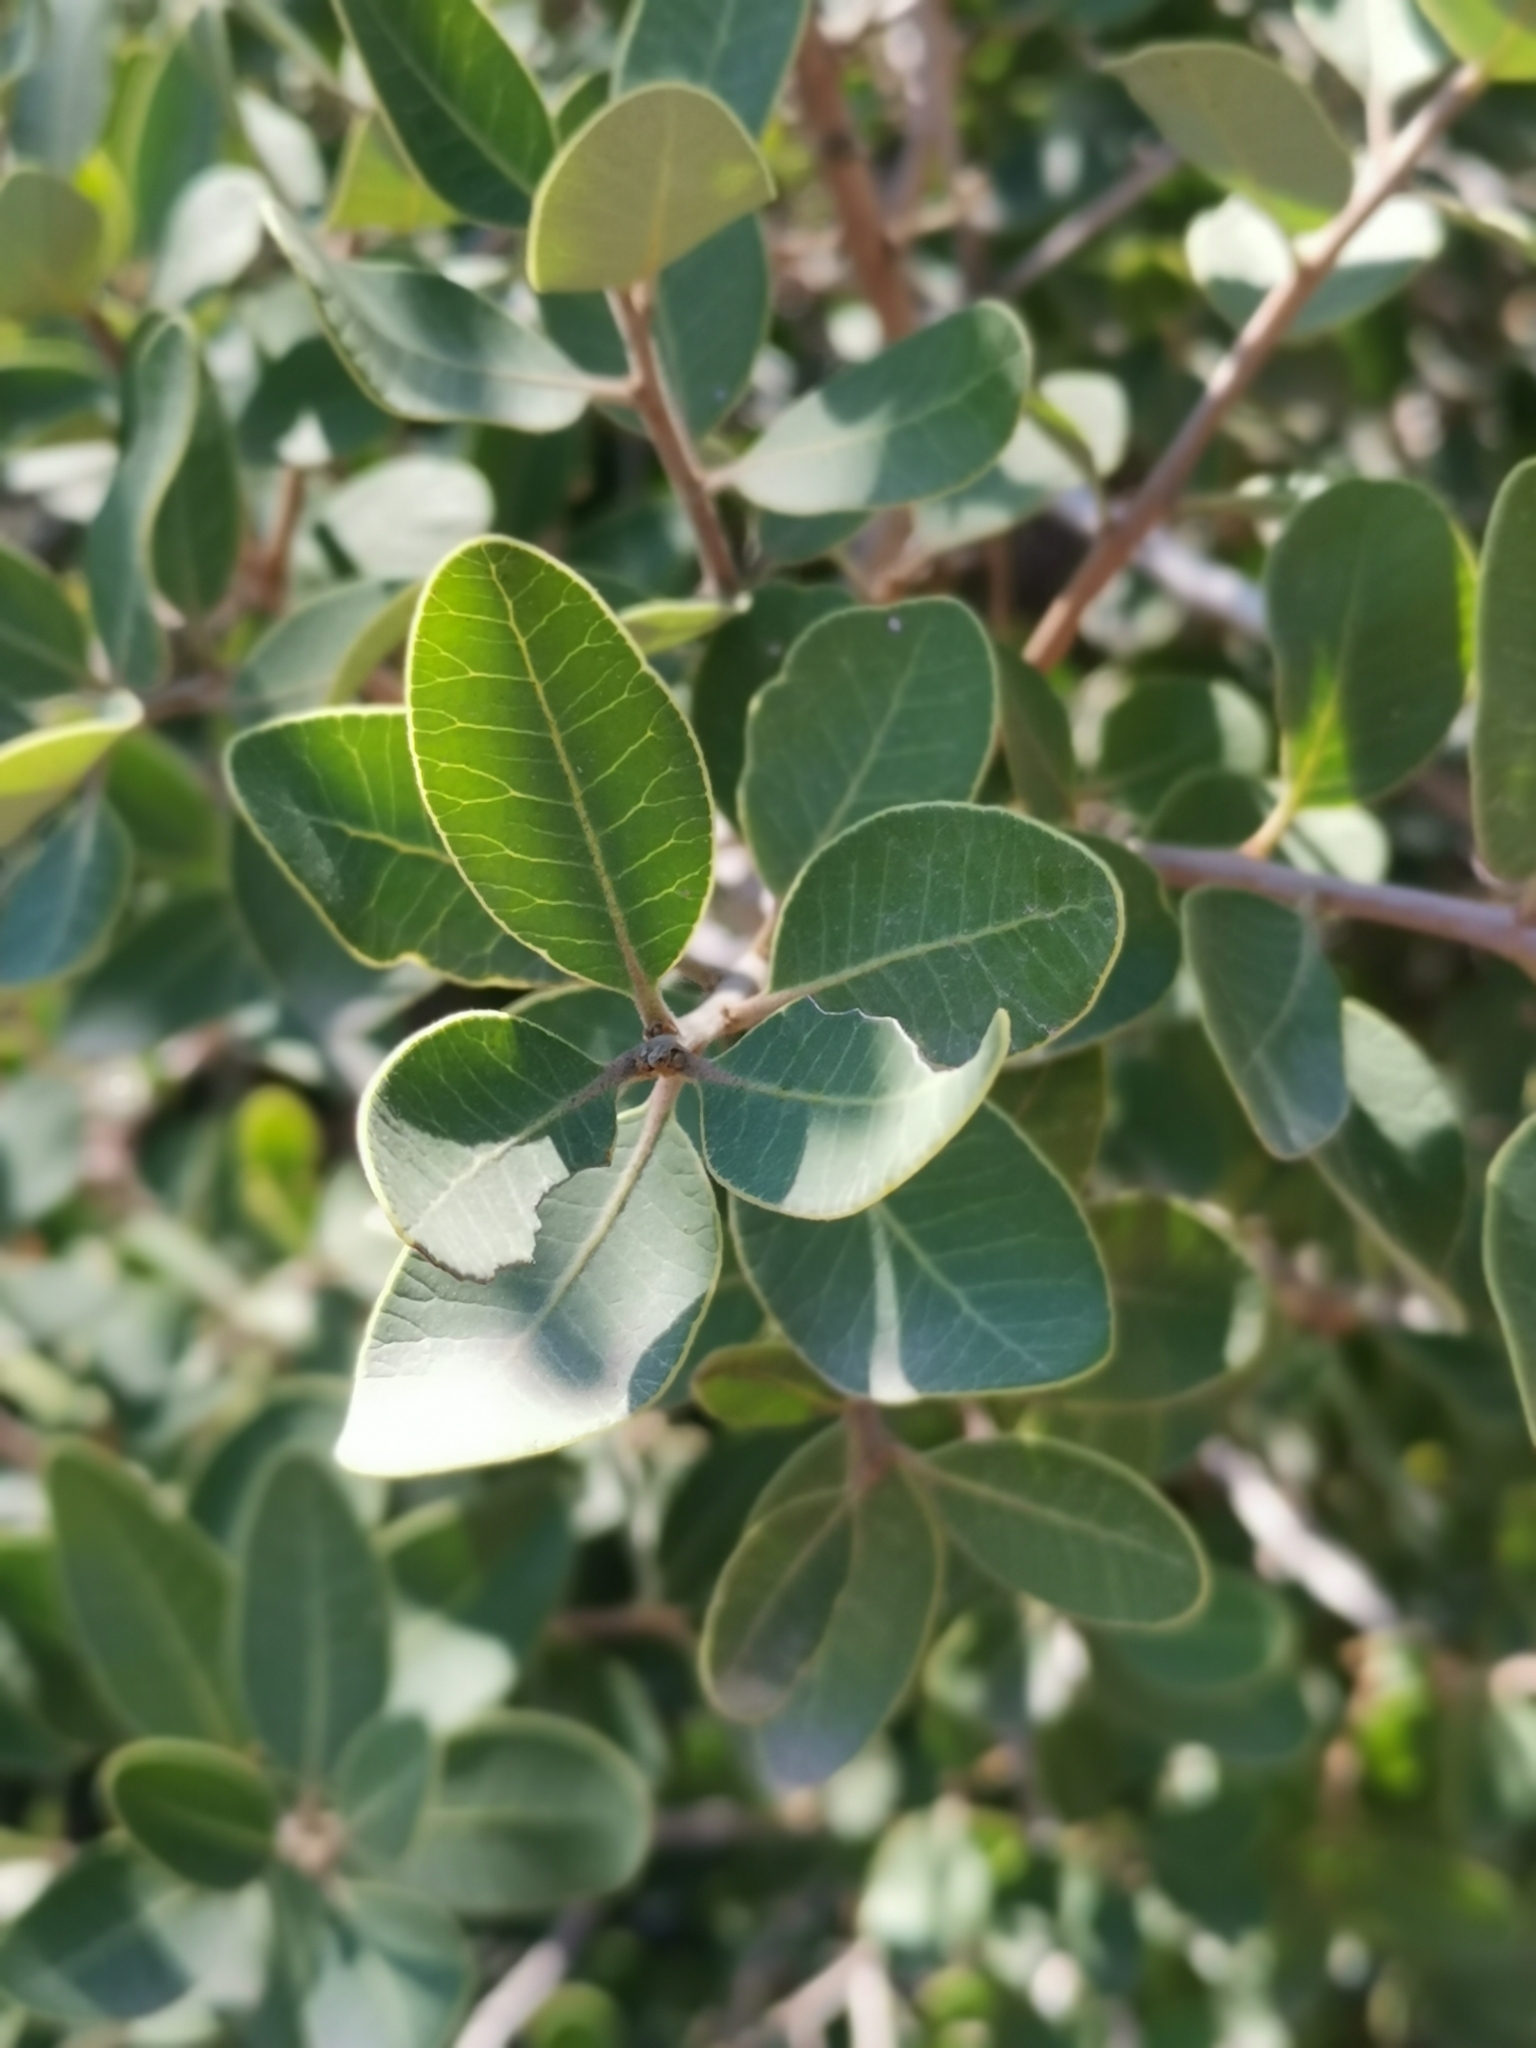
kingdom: Plantae
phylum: Tracheophyta
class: Magnoliopsida
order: Sapindales
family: Anacardiaceae
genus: Lithraea
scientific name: Lithraea caustica
